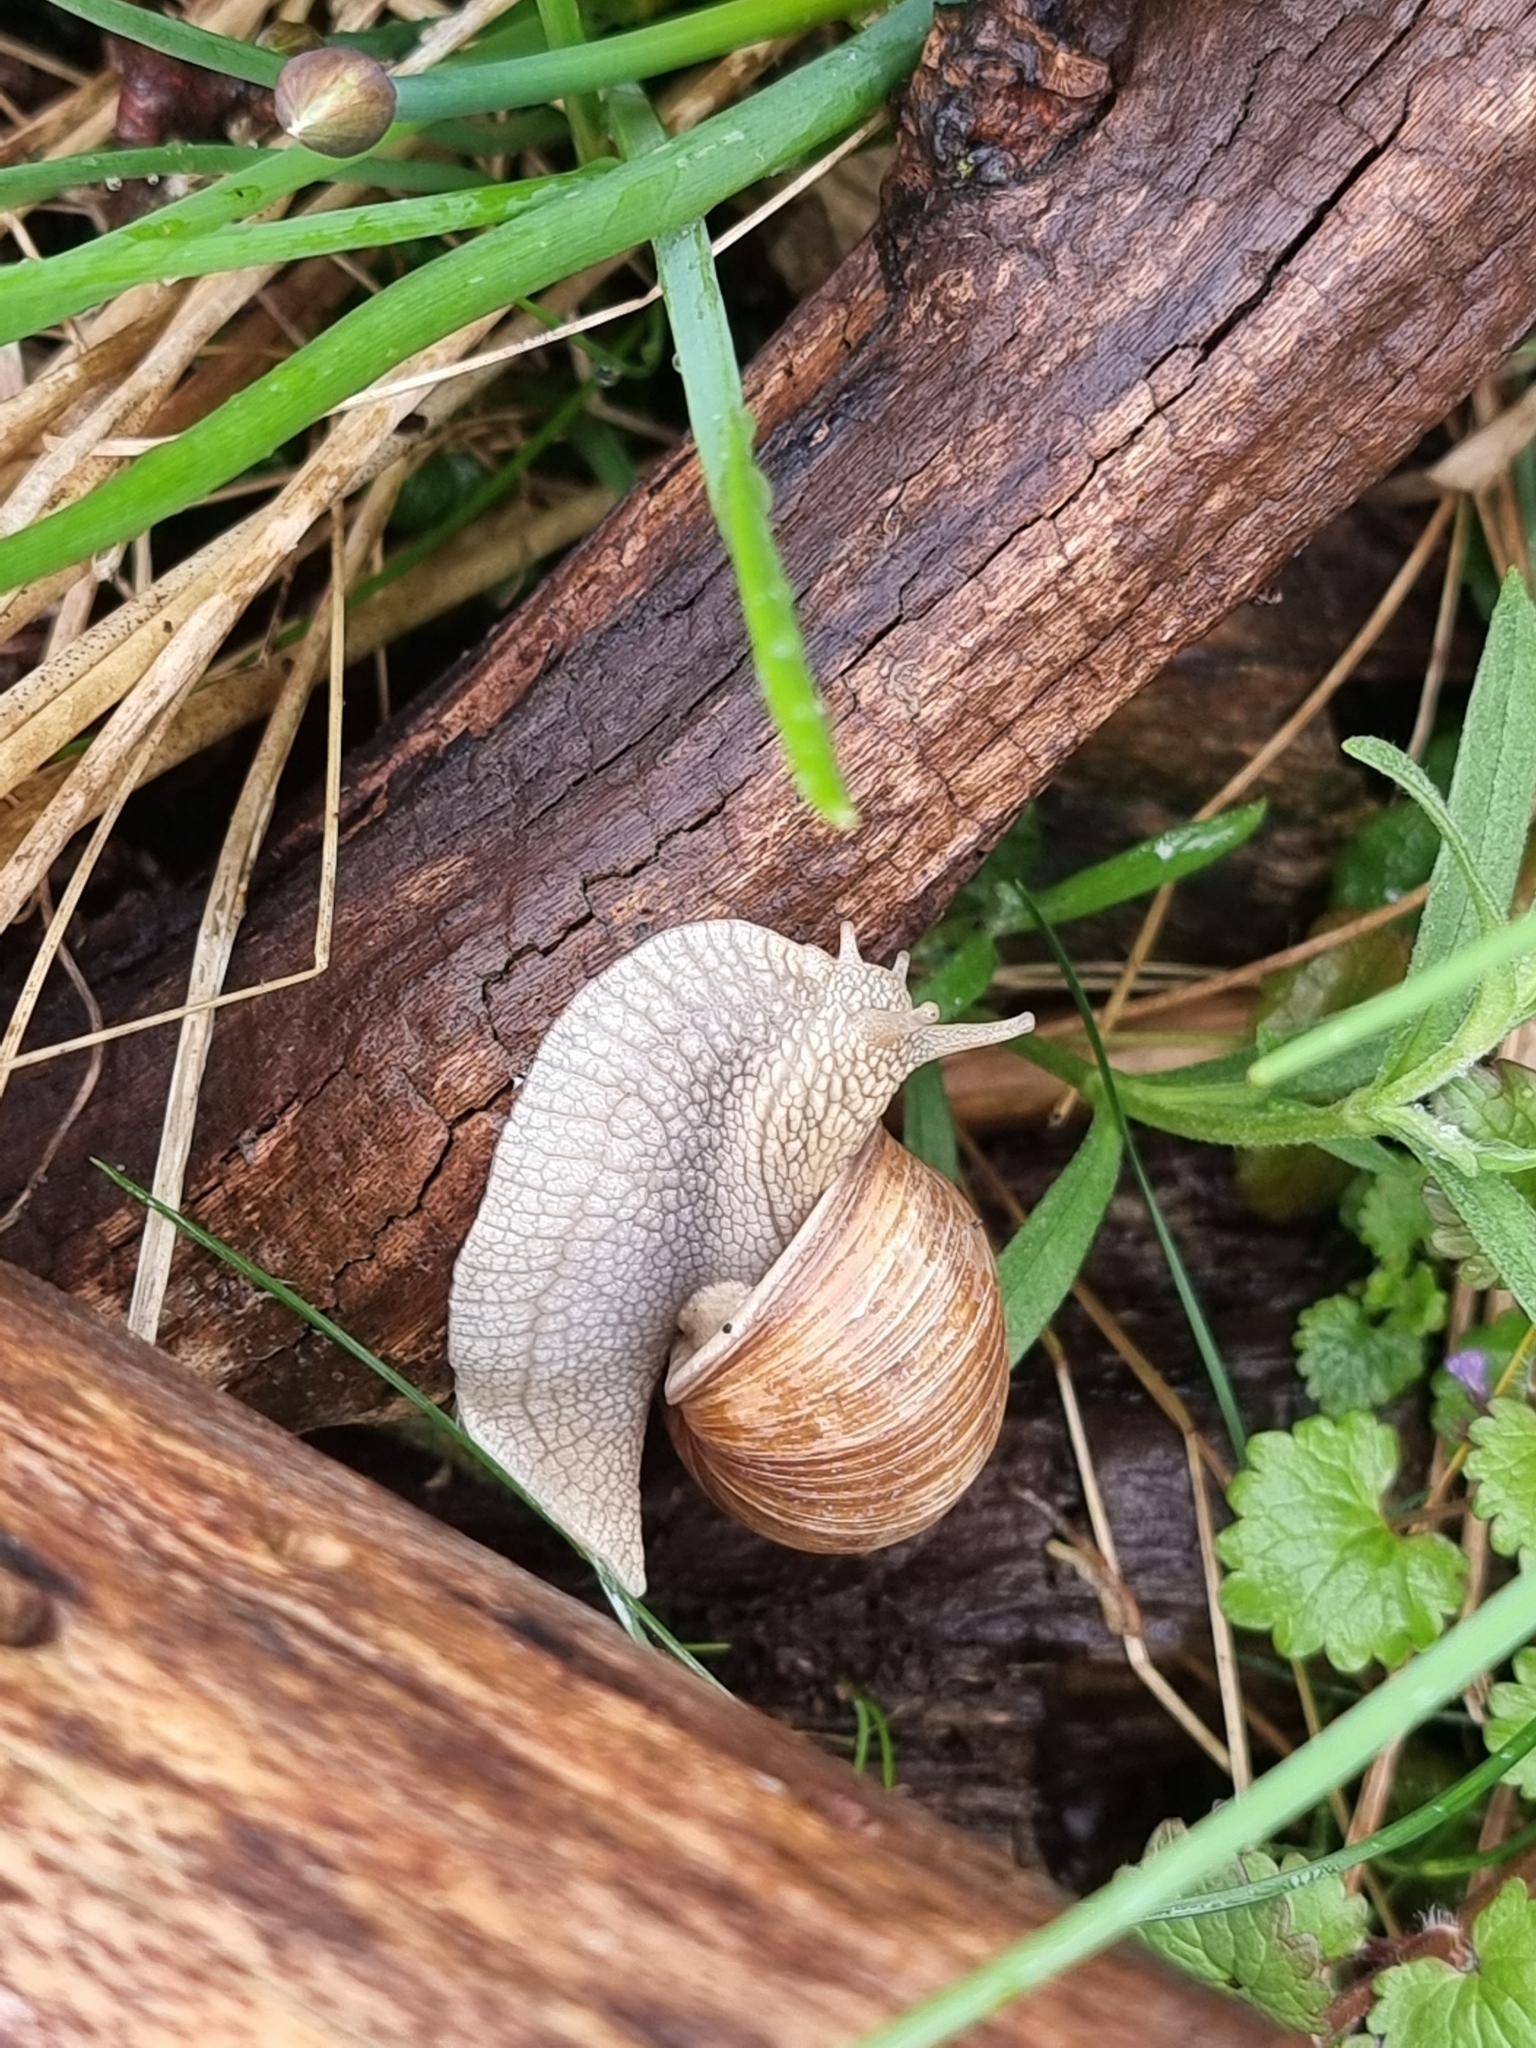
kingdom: Animalia
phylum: Mollusca
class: Gastropoda
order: Stylommatophora
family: Helicidae
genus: Helix
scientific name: Helix pomatia
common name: Roman snail
